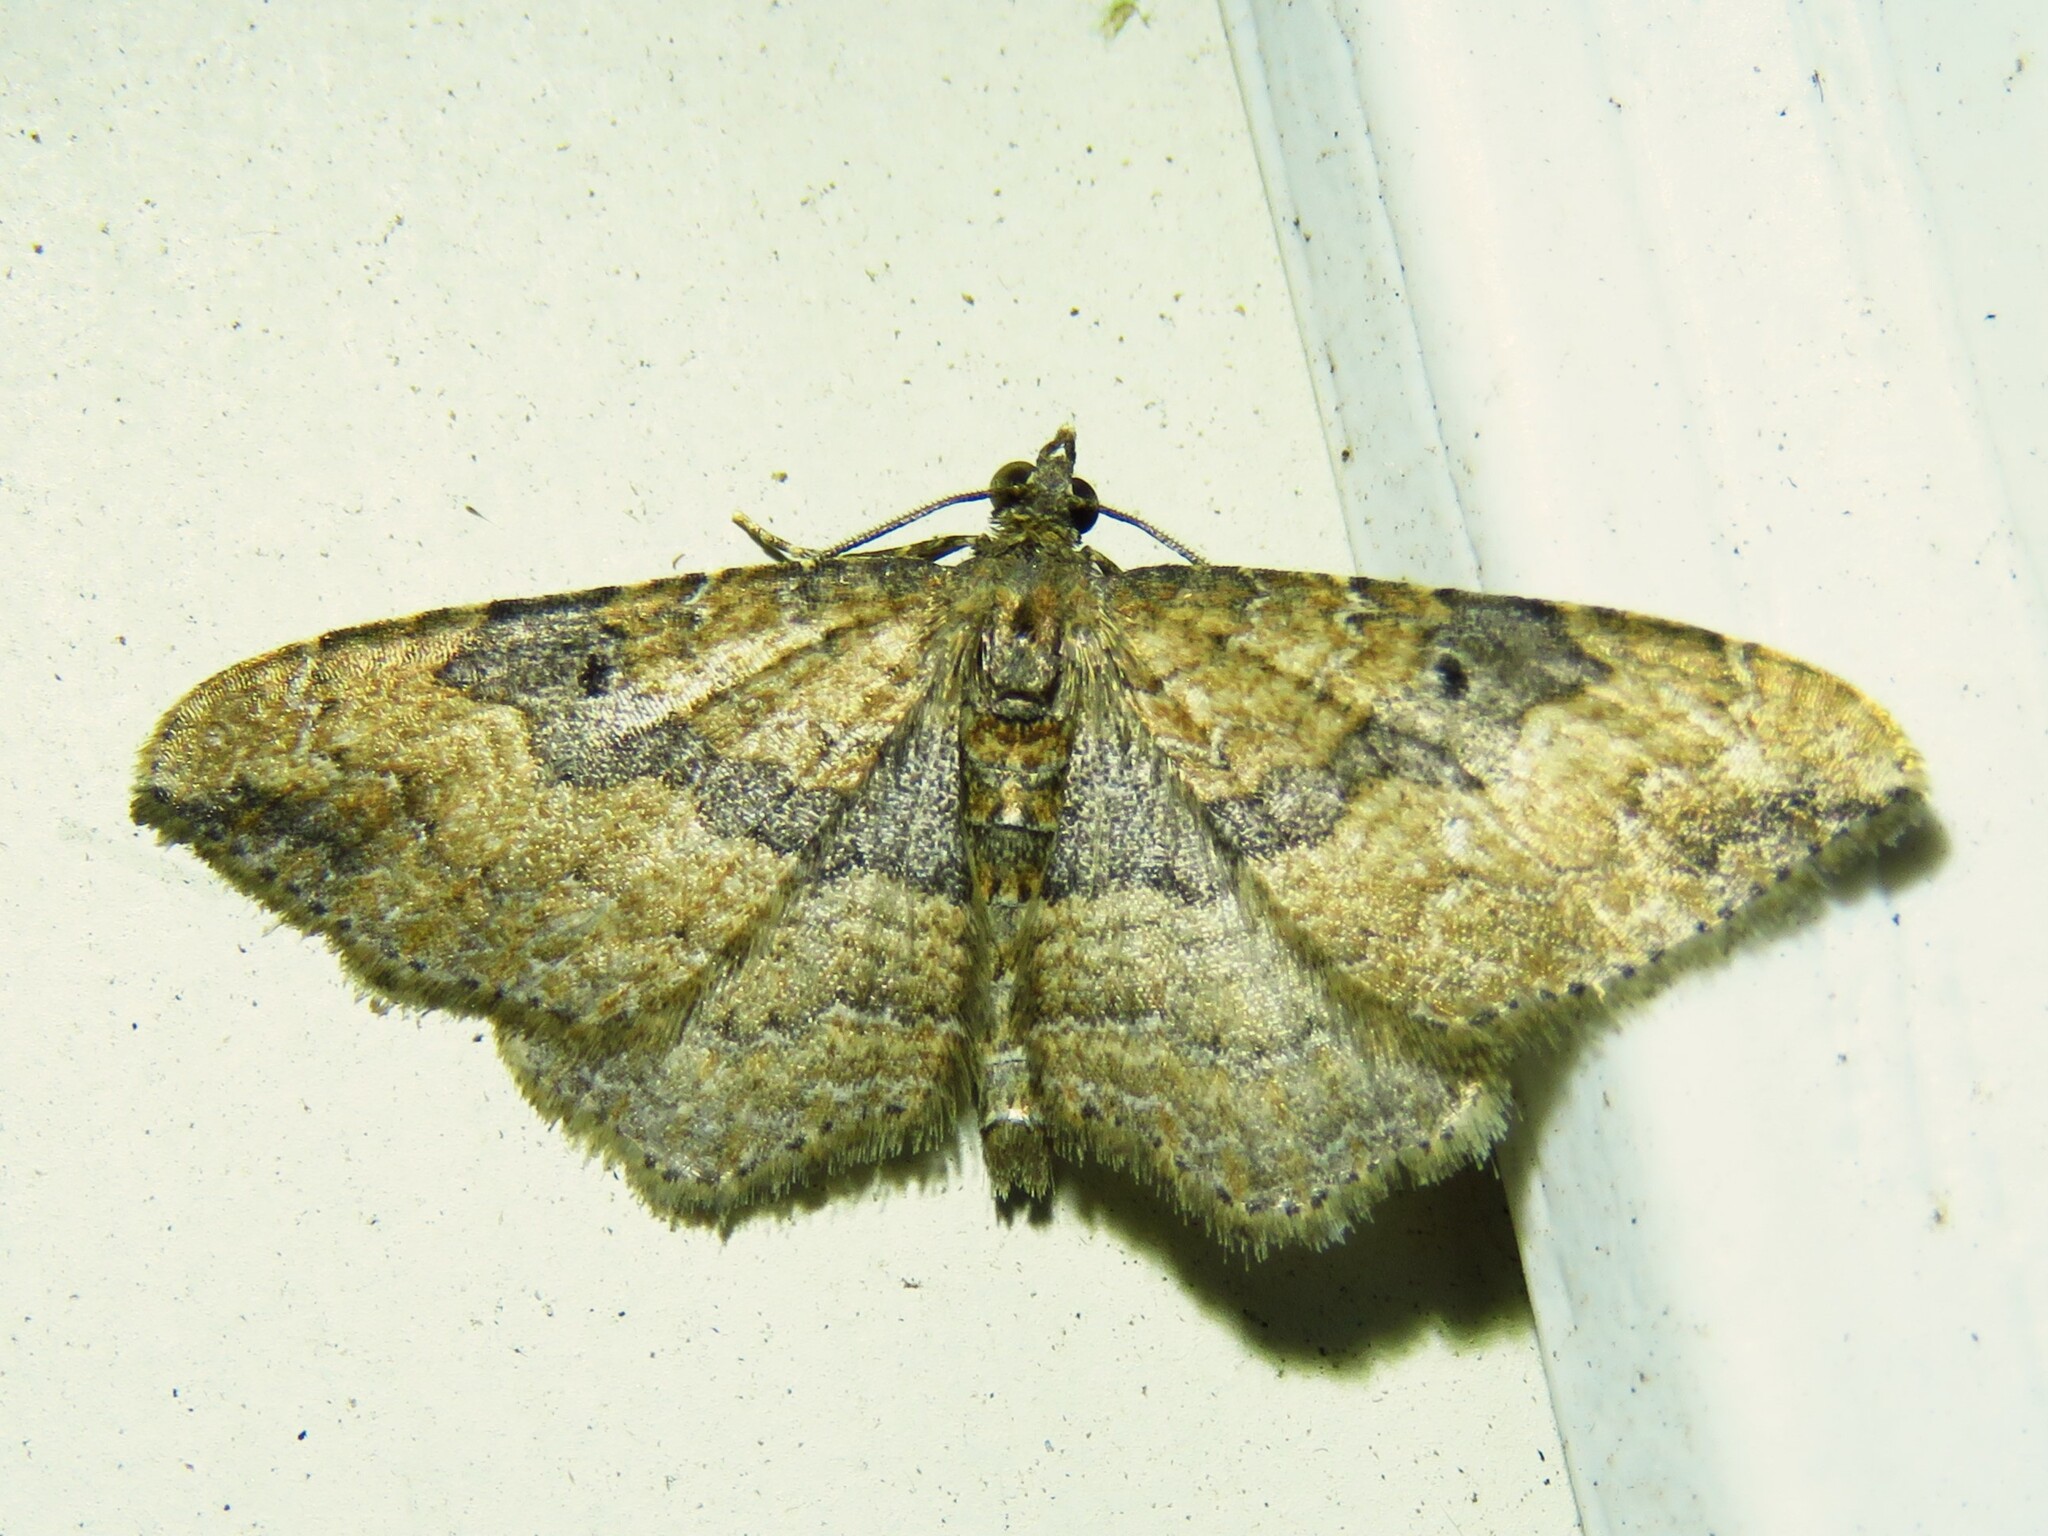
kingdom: Animalia
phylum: Arthropoda
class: Insecta
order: Lepidoptera
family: Geometridae
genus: Orthonama
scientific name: Orthonama obstipata
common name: The gem
